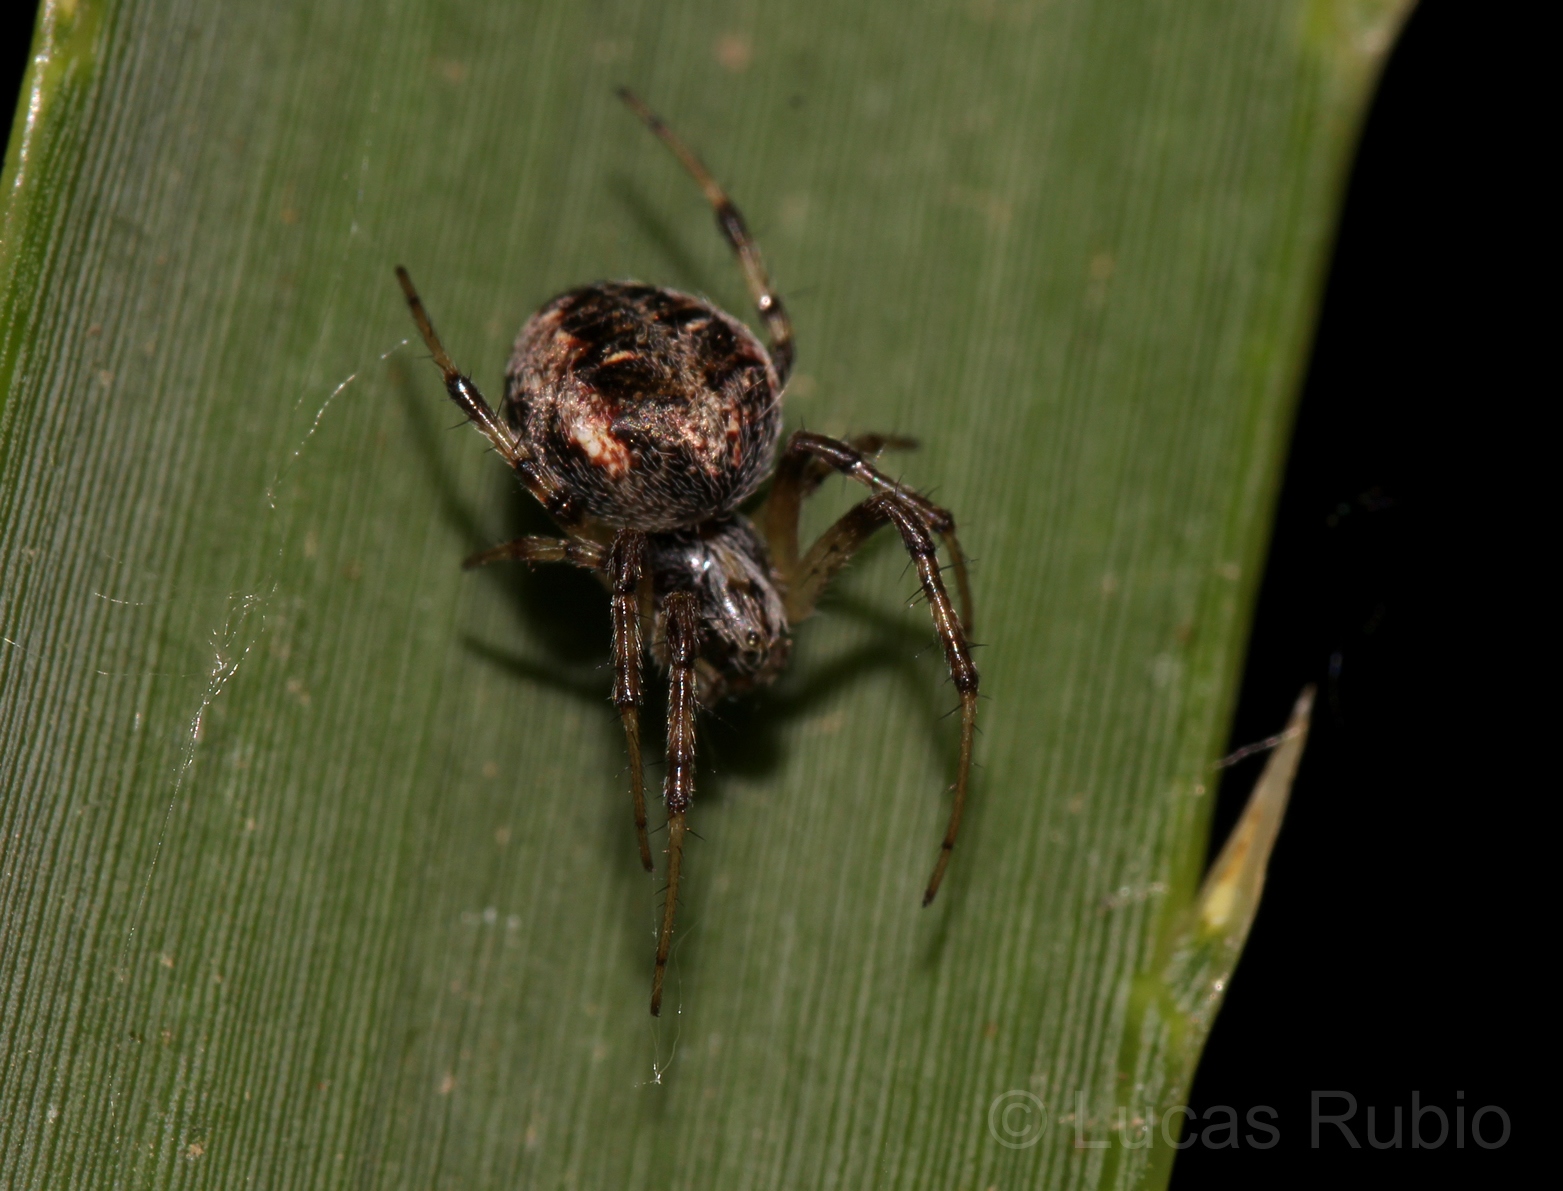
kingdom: Animalia
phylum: Arthropoda
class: Arachnida
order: Araneae
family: Araneidae
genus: Metepeira
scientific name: Metepeira
